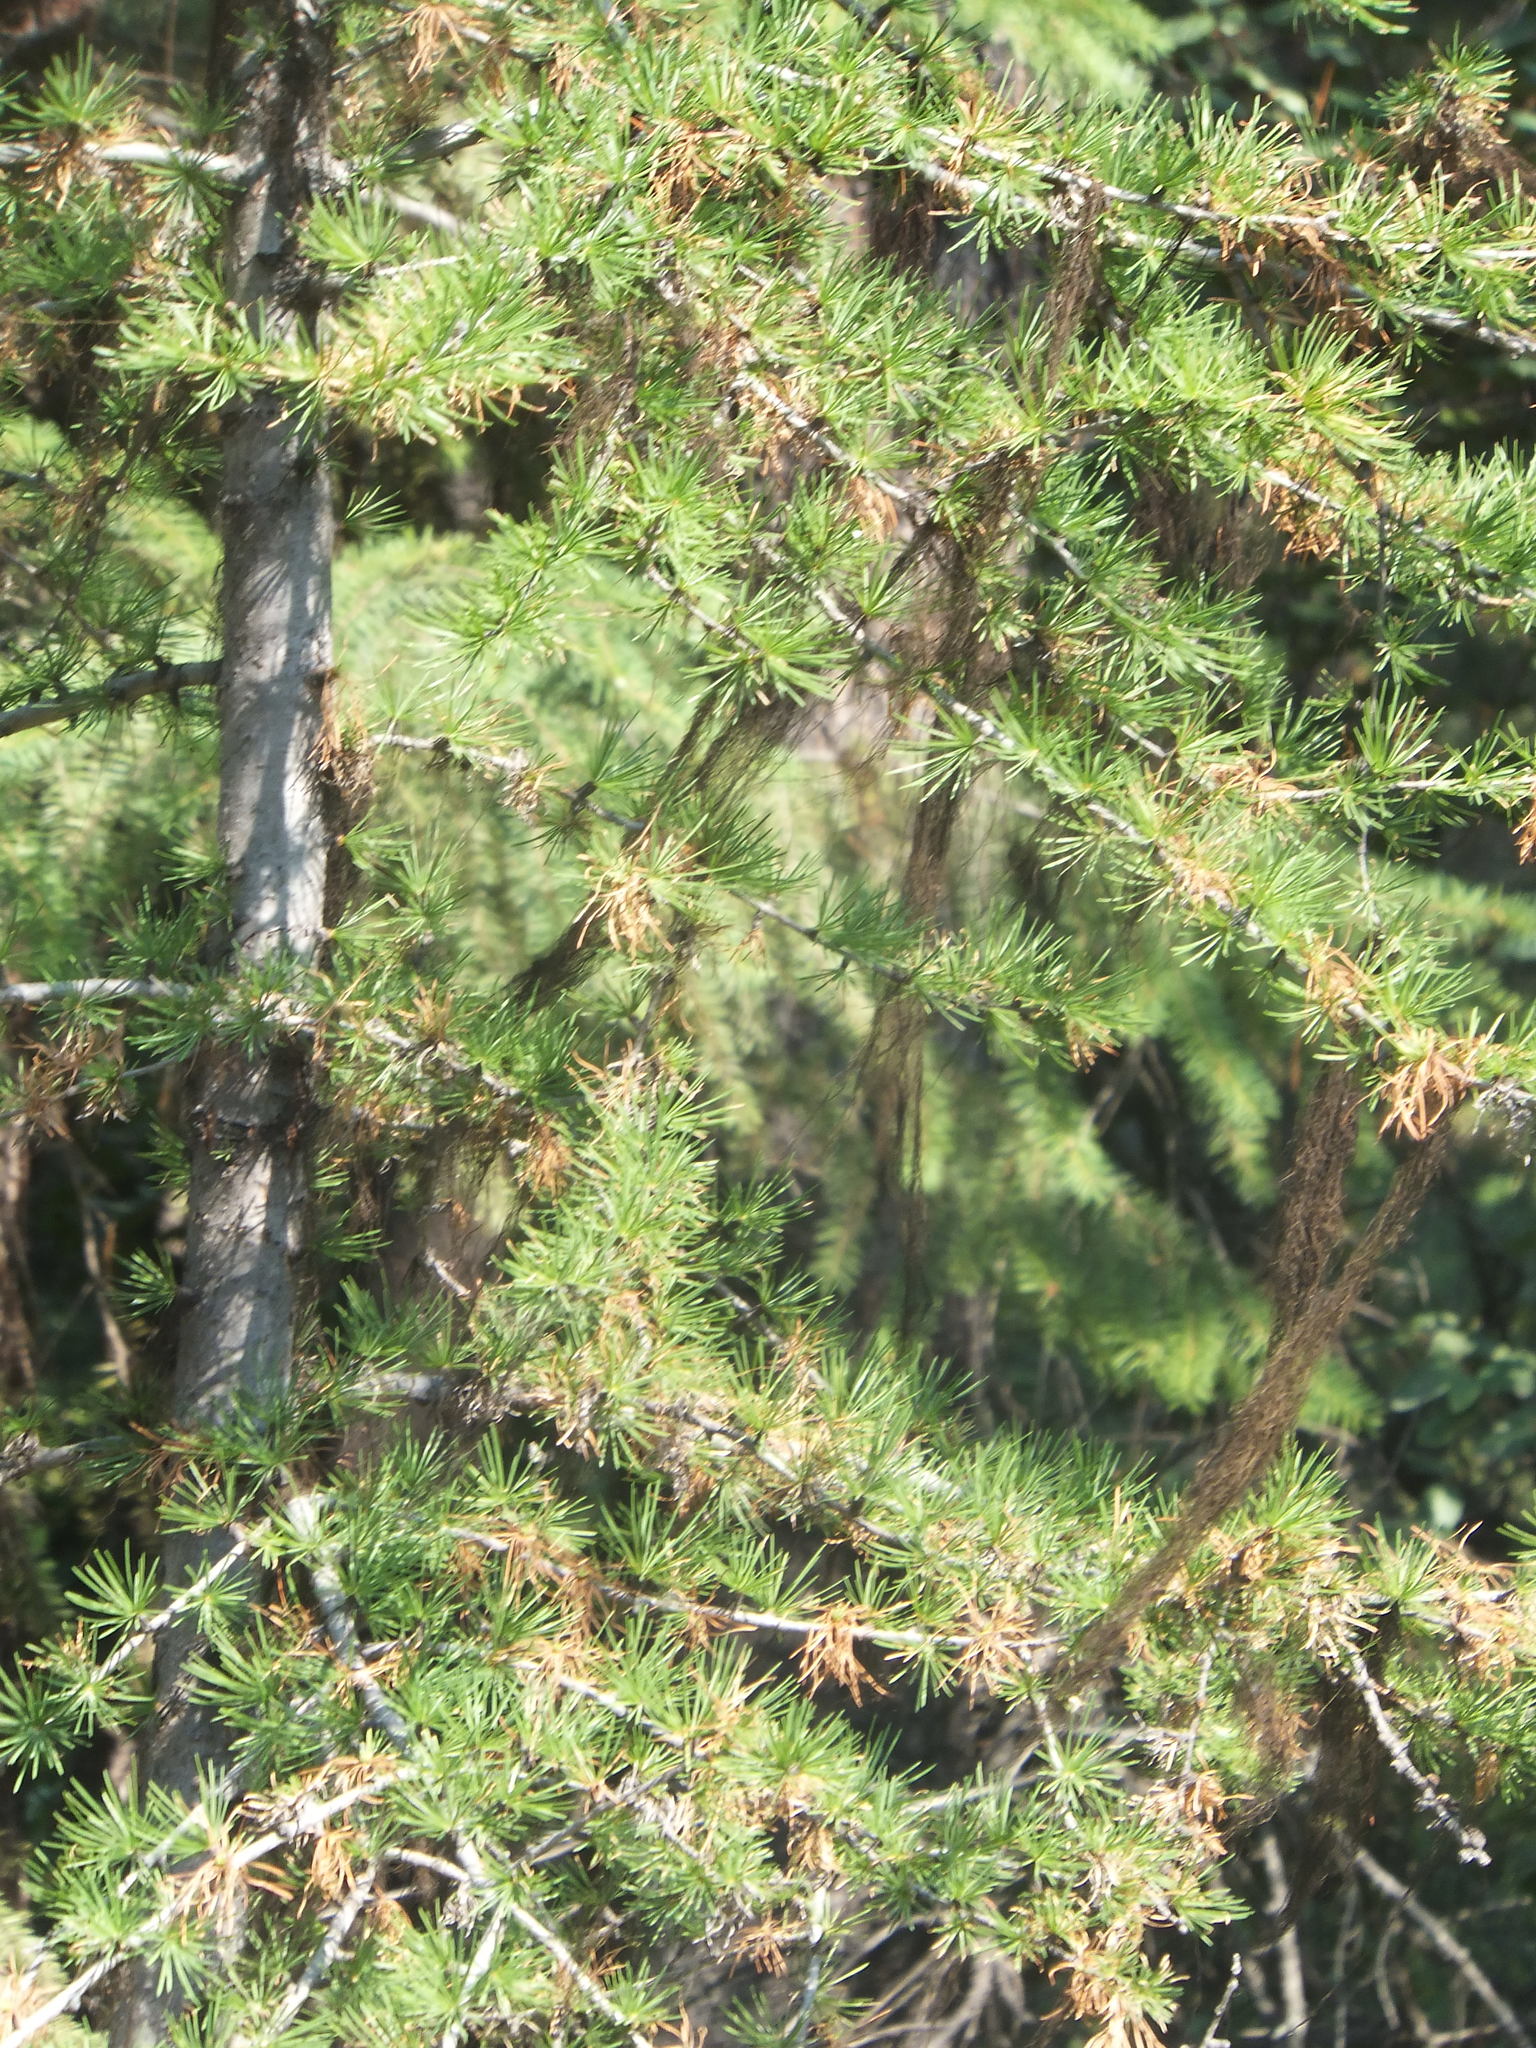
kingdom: Plantae
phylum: Tracheophyta
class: Pinopsida
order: Pinales
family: Pinaceae
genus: Larix
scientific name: Larix occidentalis
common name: Western larch
